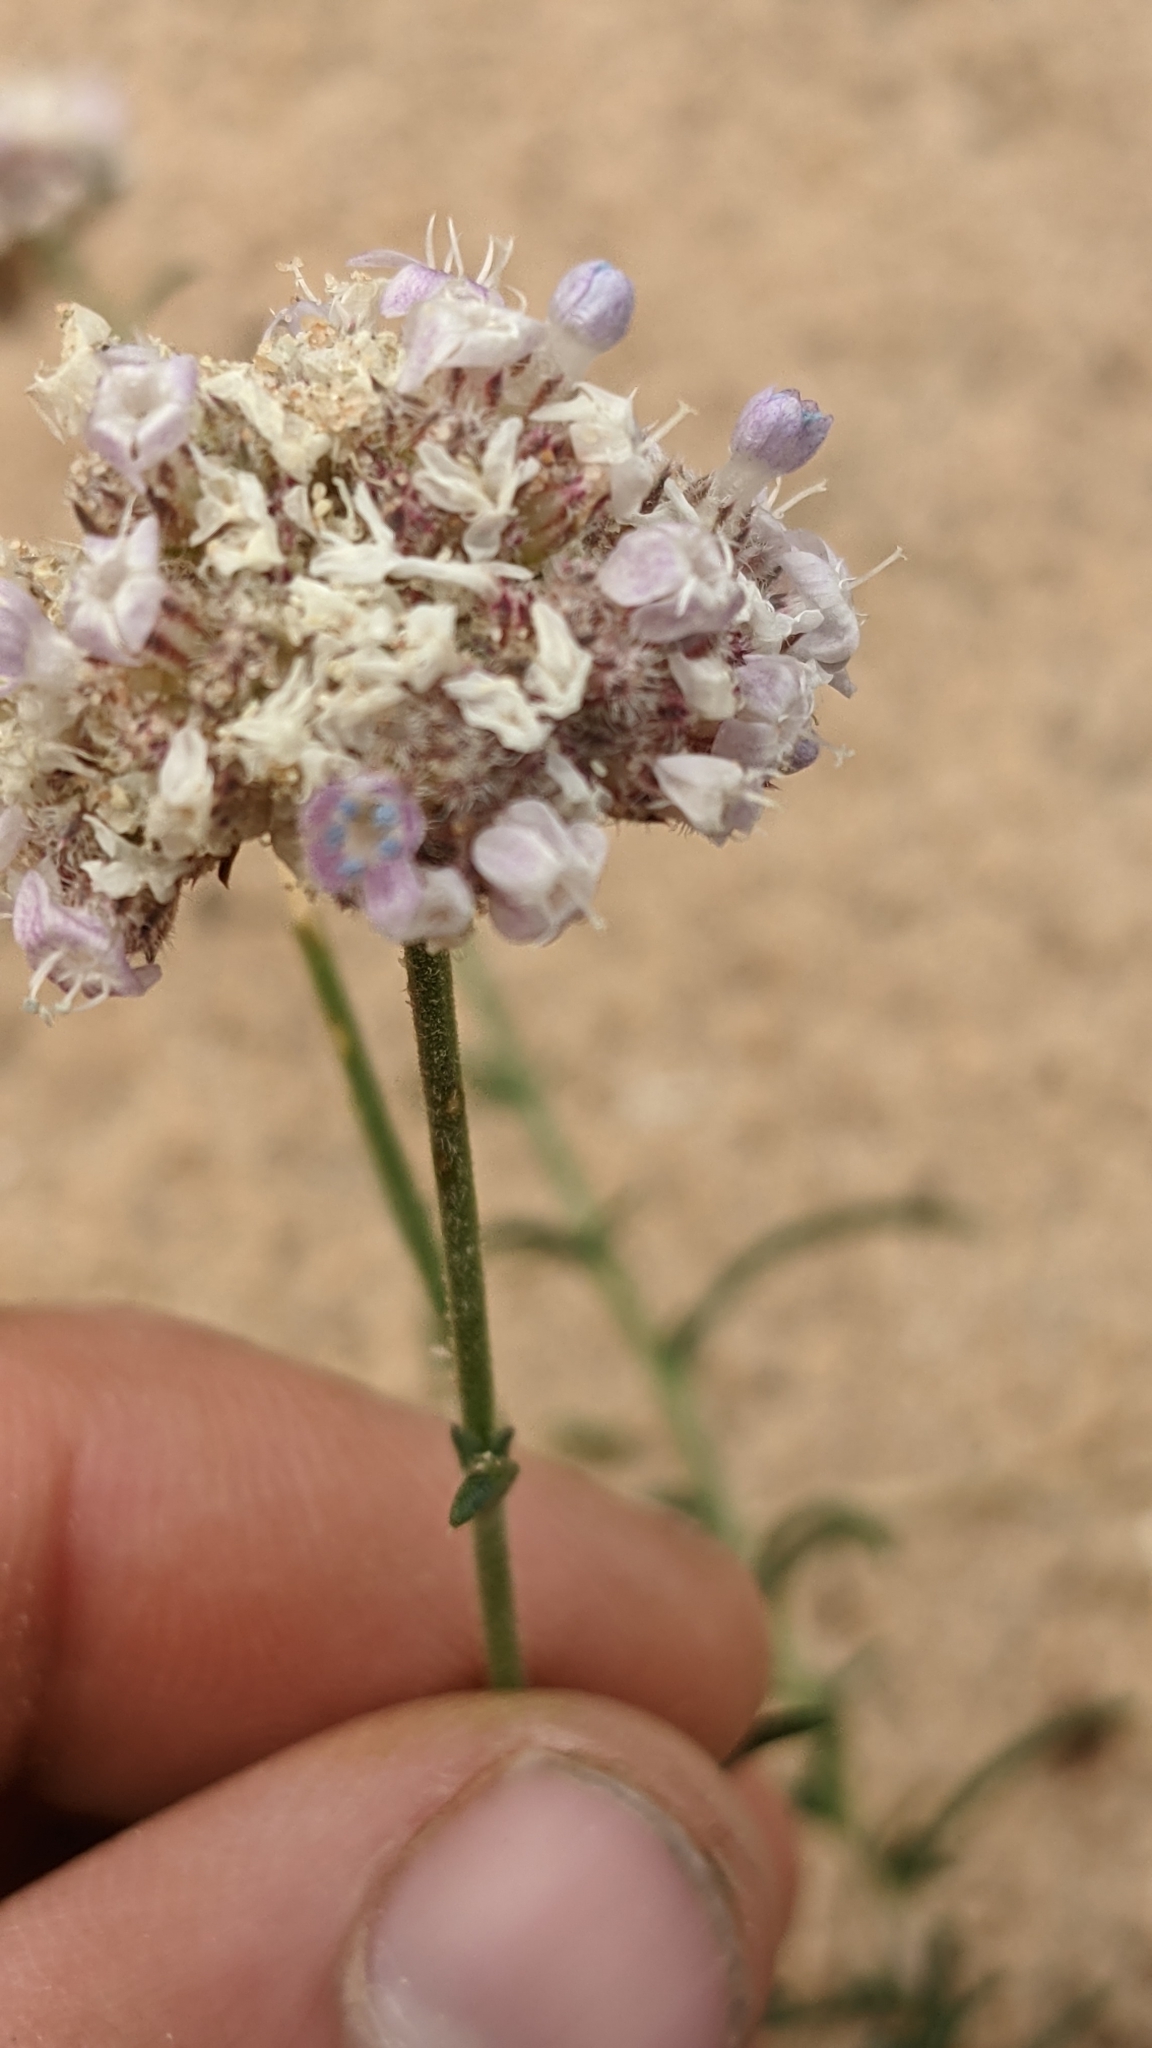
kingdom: Plantae
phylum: Tracheophyta
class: Magnoliopsida
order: Ericales
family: Polemoniaceae
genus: Ipomopsis
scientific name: Ipomopsis congesta
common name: Ball-head gilia
